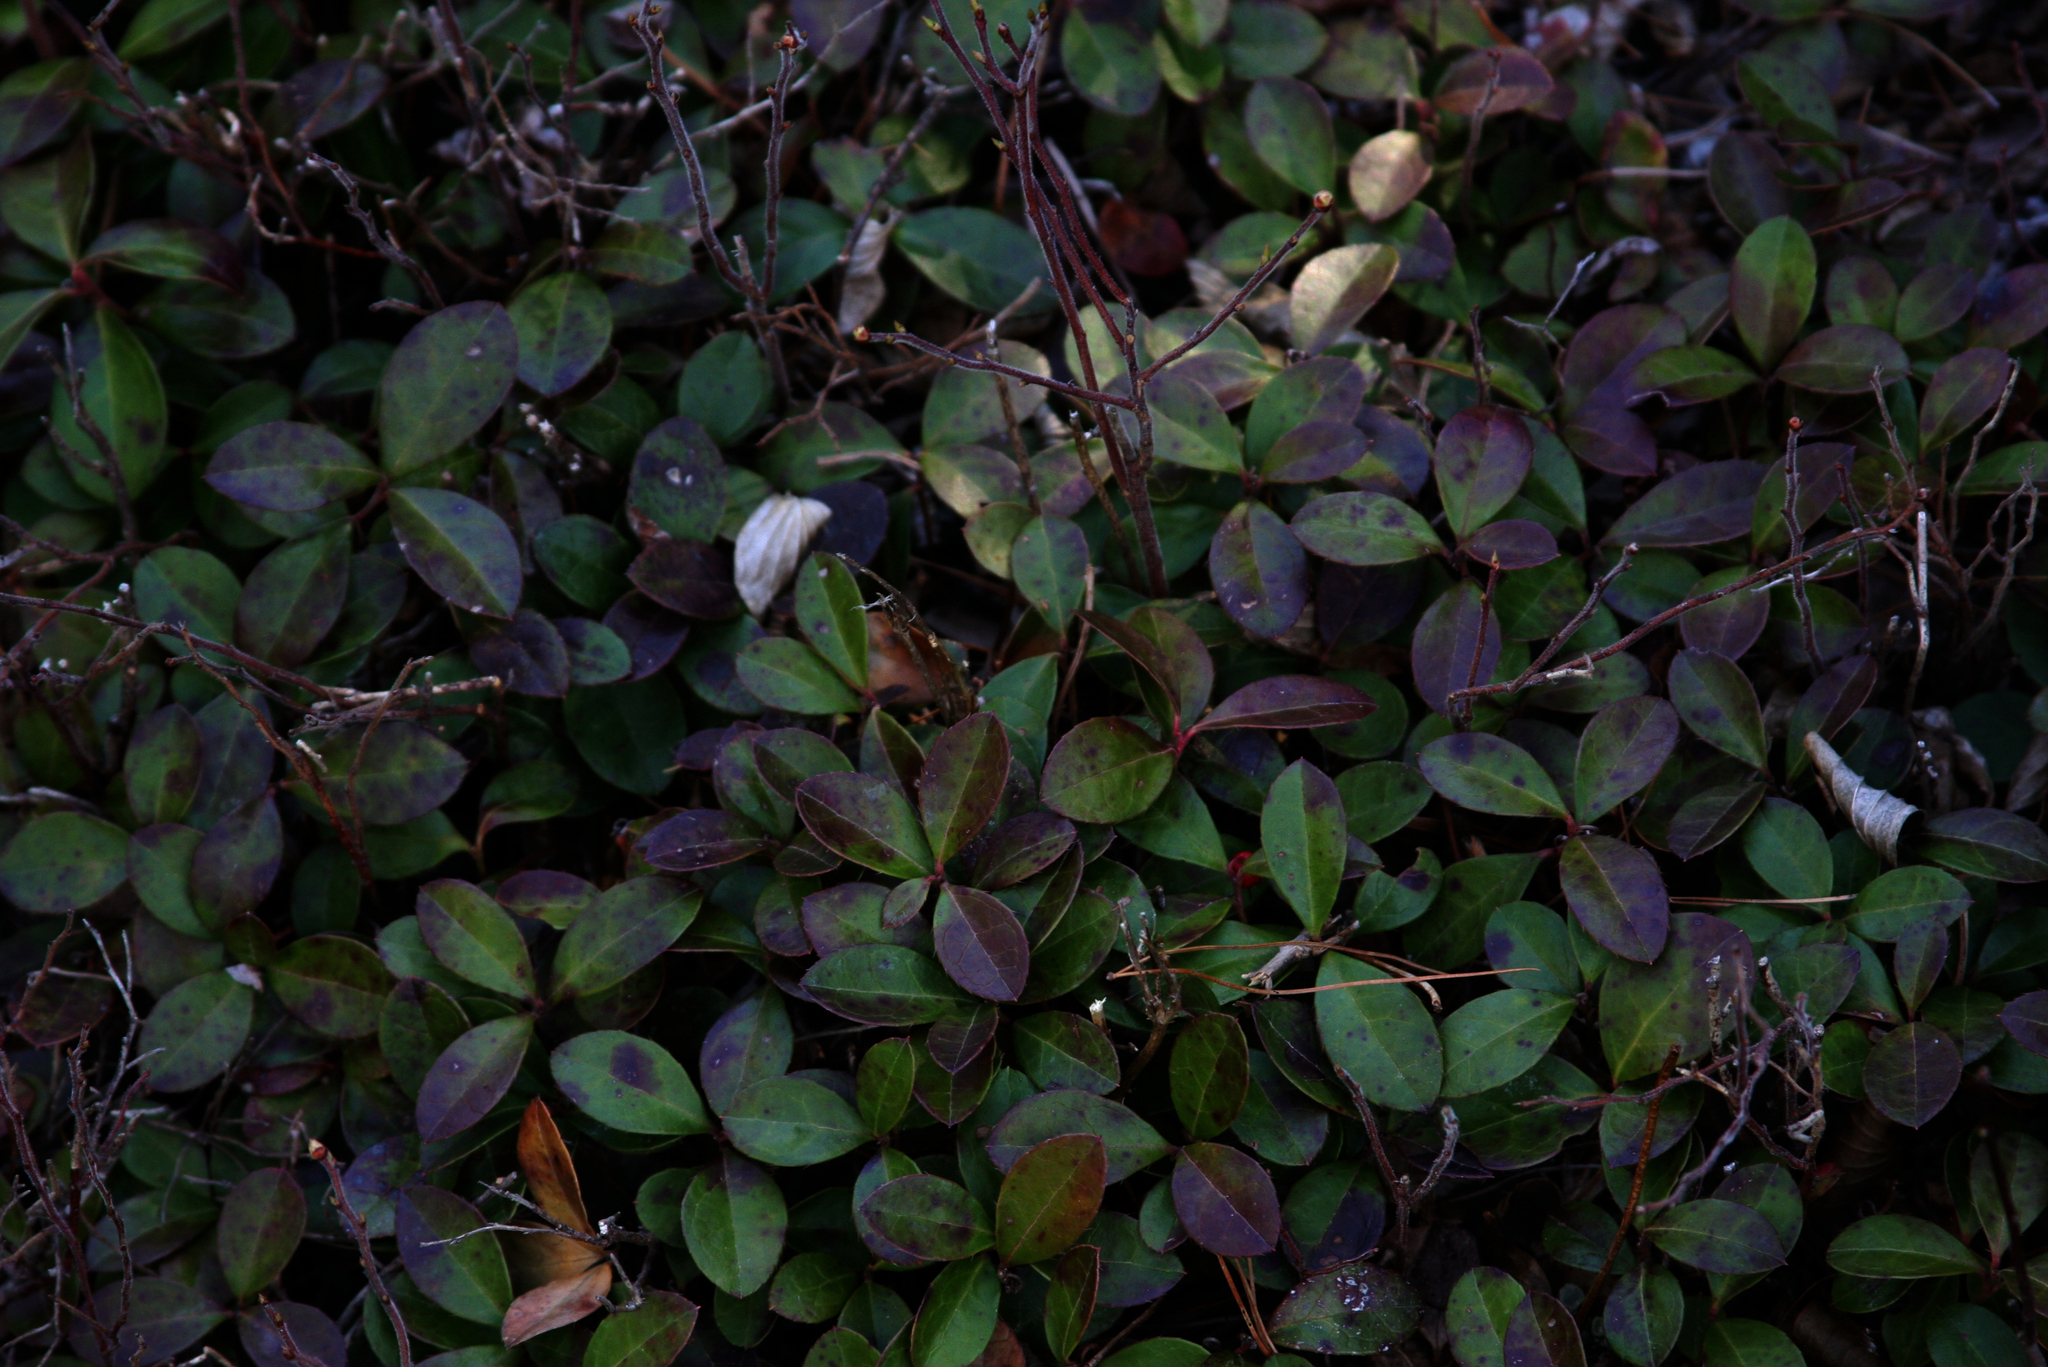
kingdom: Plantae
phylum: Tracheophyta
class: Magnoliopsida
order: Ericales
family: Ericaceae
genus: Gaultheria
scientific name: Gaultheria procumbens
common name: Checkerberry
